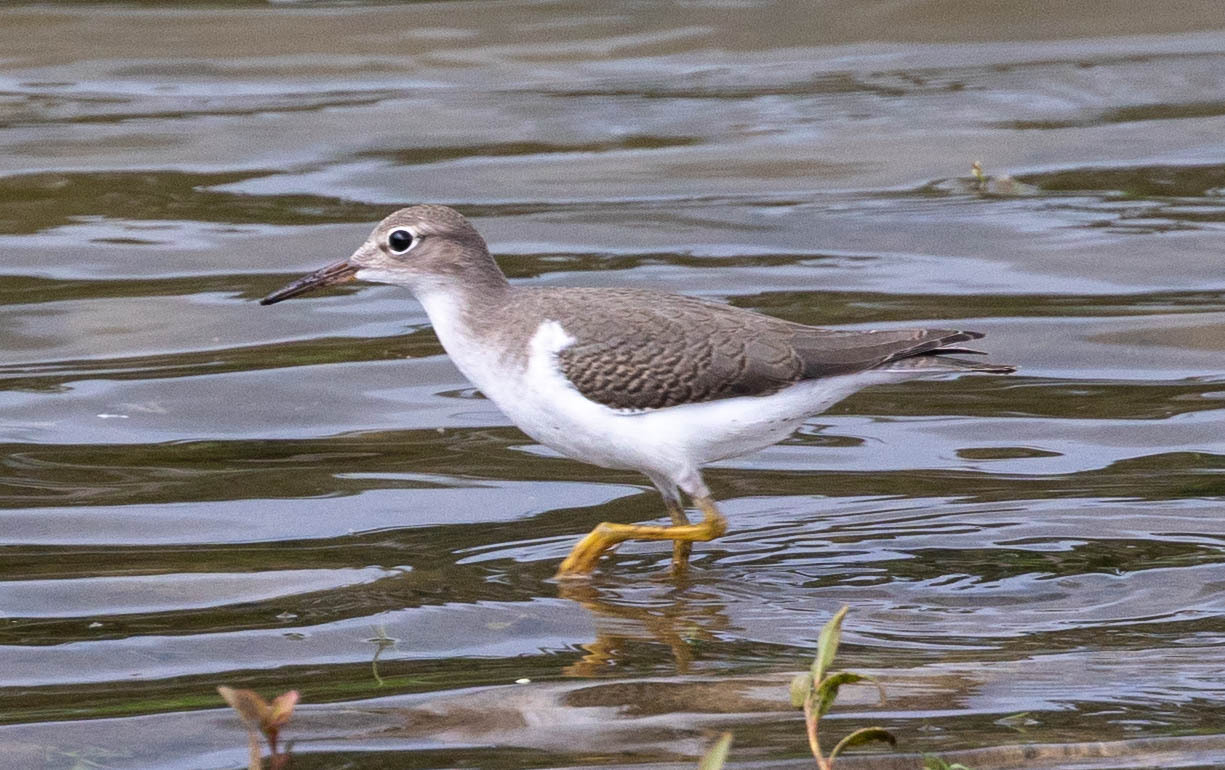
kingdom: Animalia
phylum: Chordata
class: Aves
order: Charadriiformes
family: Scolopacidae
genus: Actitis
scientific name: Actitis macularius
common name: Spotted sandpiper
